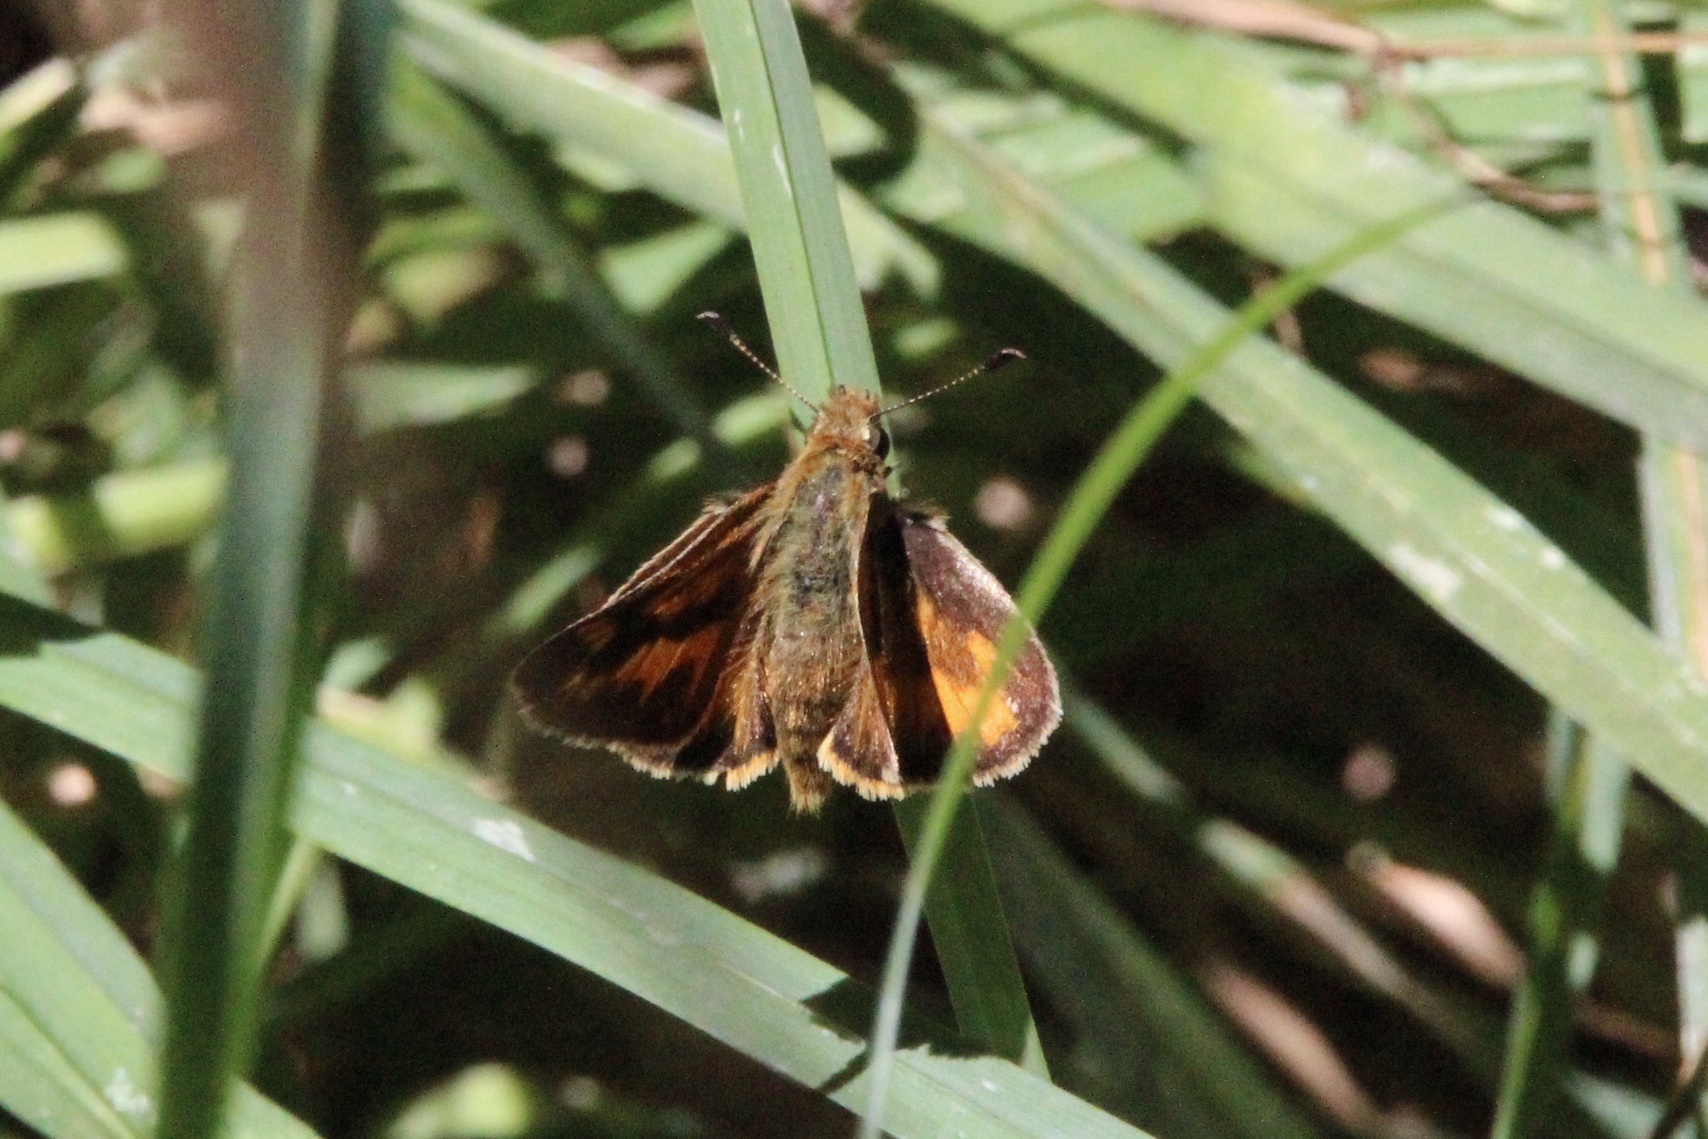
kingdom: Animalia
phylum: Arthropoda
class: Insecta
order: Lepidoptera
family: Hesperiidae
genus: Ochlodes
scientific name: Ochlodes sylvanoides
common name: Woodland skipper
